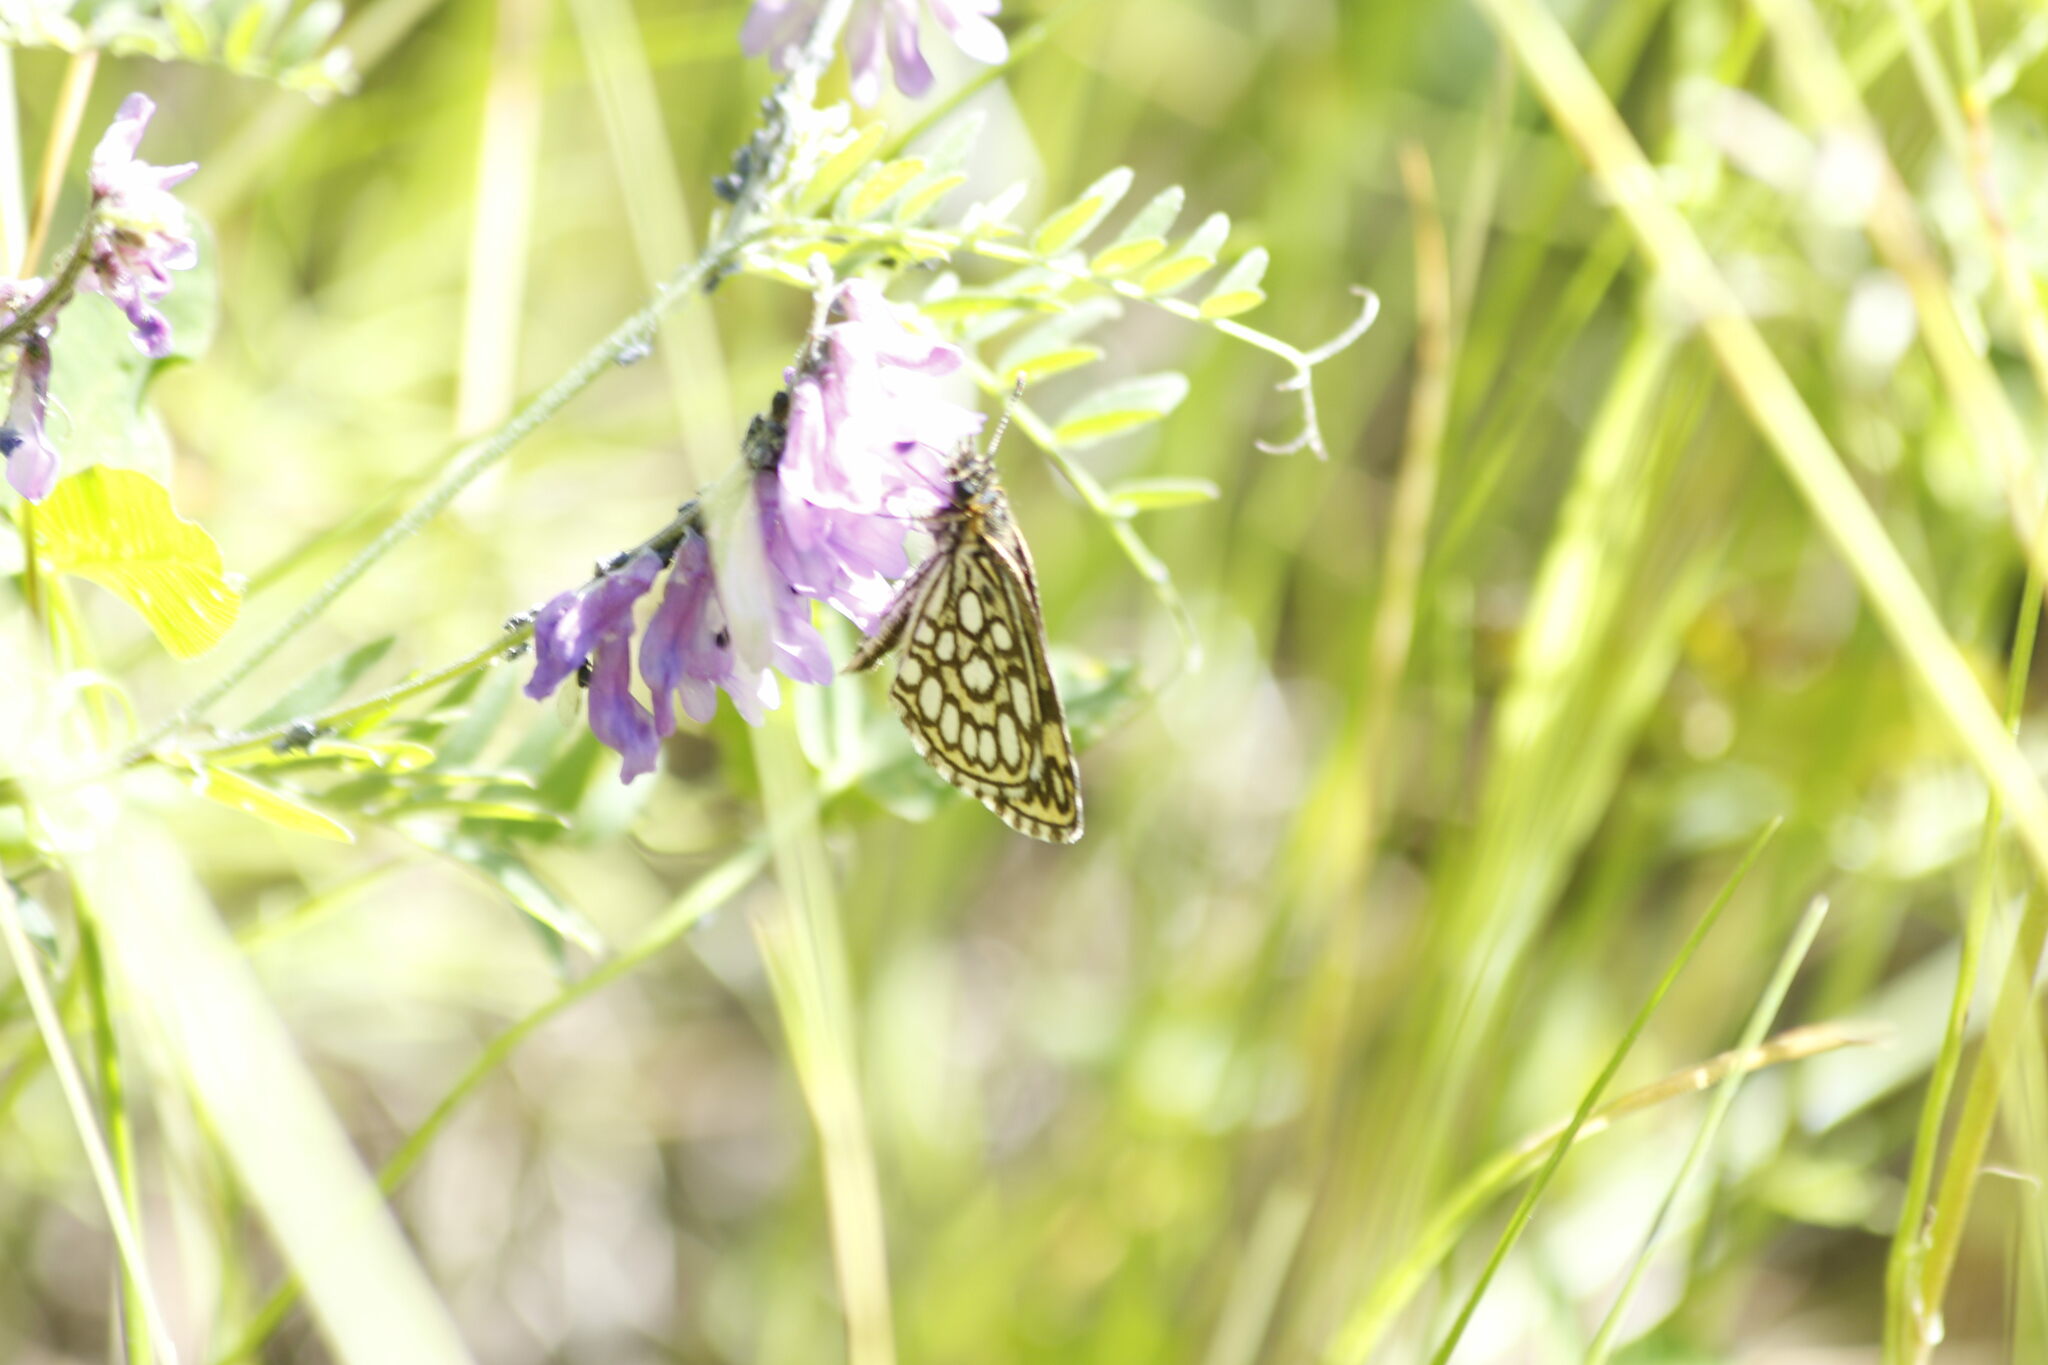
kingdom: Animalia
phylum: Arthropoda
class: Insecta
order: Lepidoptera
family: Hesperiidae
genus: Heteropterus
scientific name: Heteropterus morpheus
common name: Large chequered skipper
